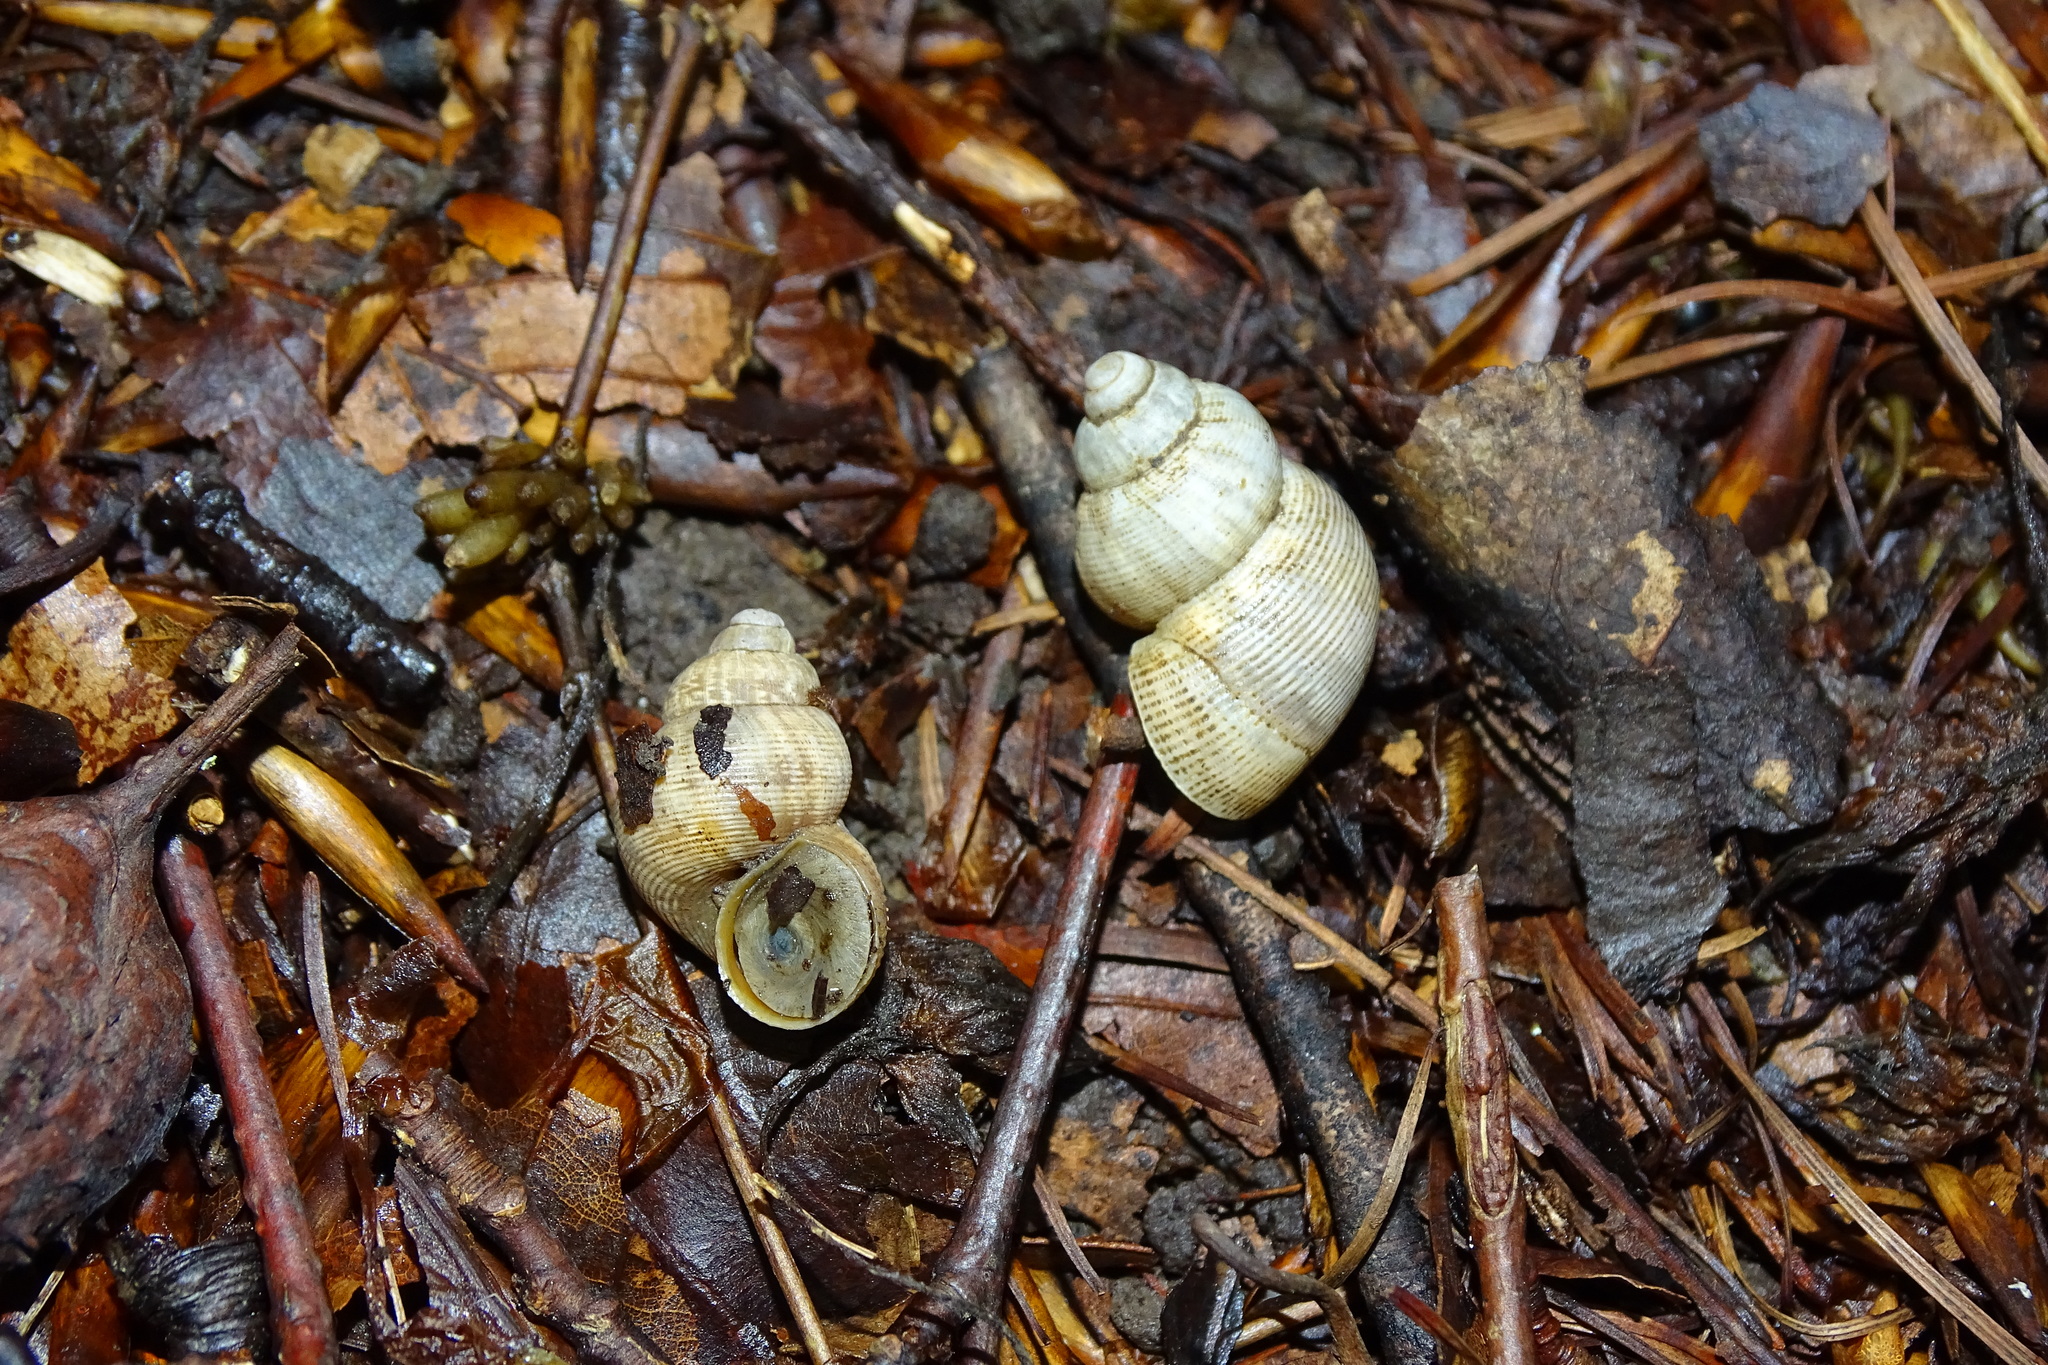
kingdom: Animalia
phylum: Mollusca
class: Gastropoda
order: Littorinimorpha
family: Pomatiidae
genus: Pomatias
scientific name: Pomatias elegans
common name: Red-mouthed snail
